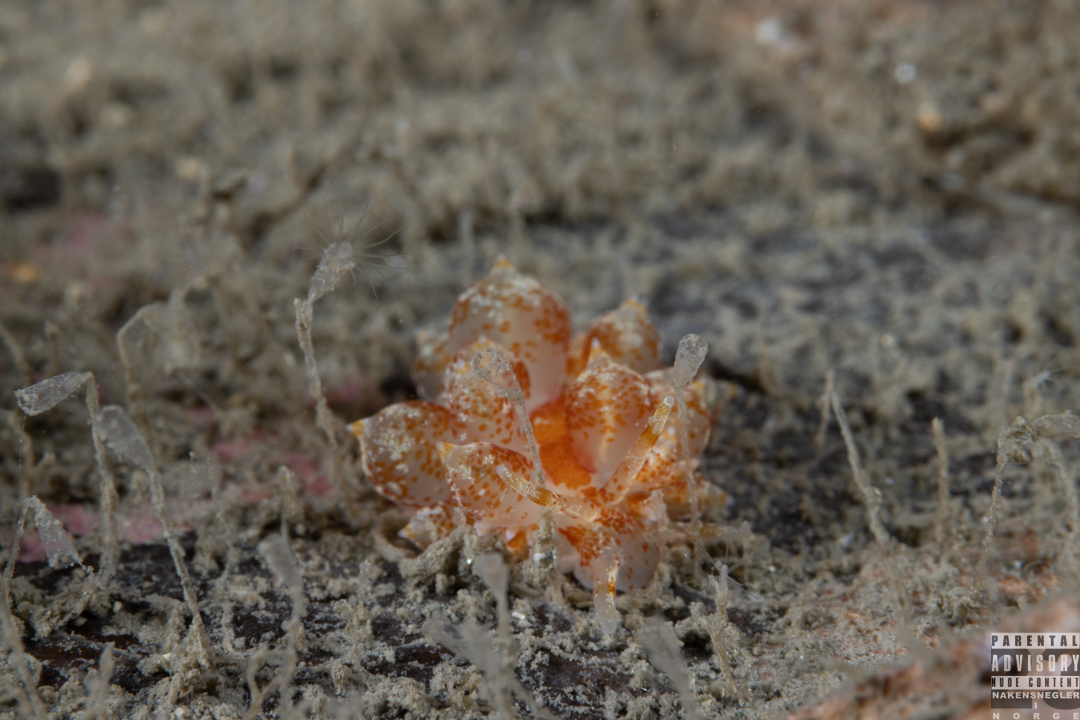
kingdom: Animalia
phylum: Mollusca
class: Gastropoda
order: Nudibranchia
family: Eubranchidae
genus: Amphorina
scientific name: Amphorina pallida
